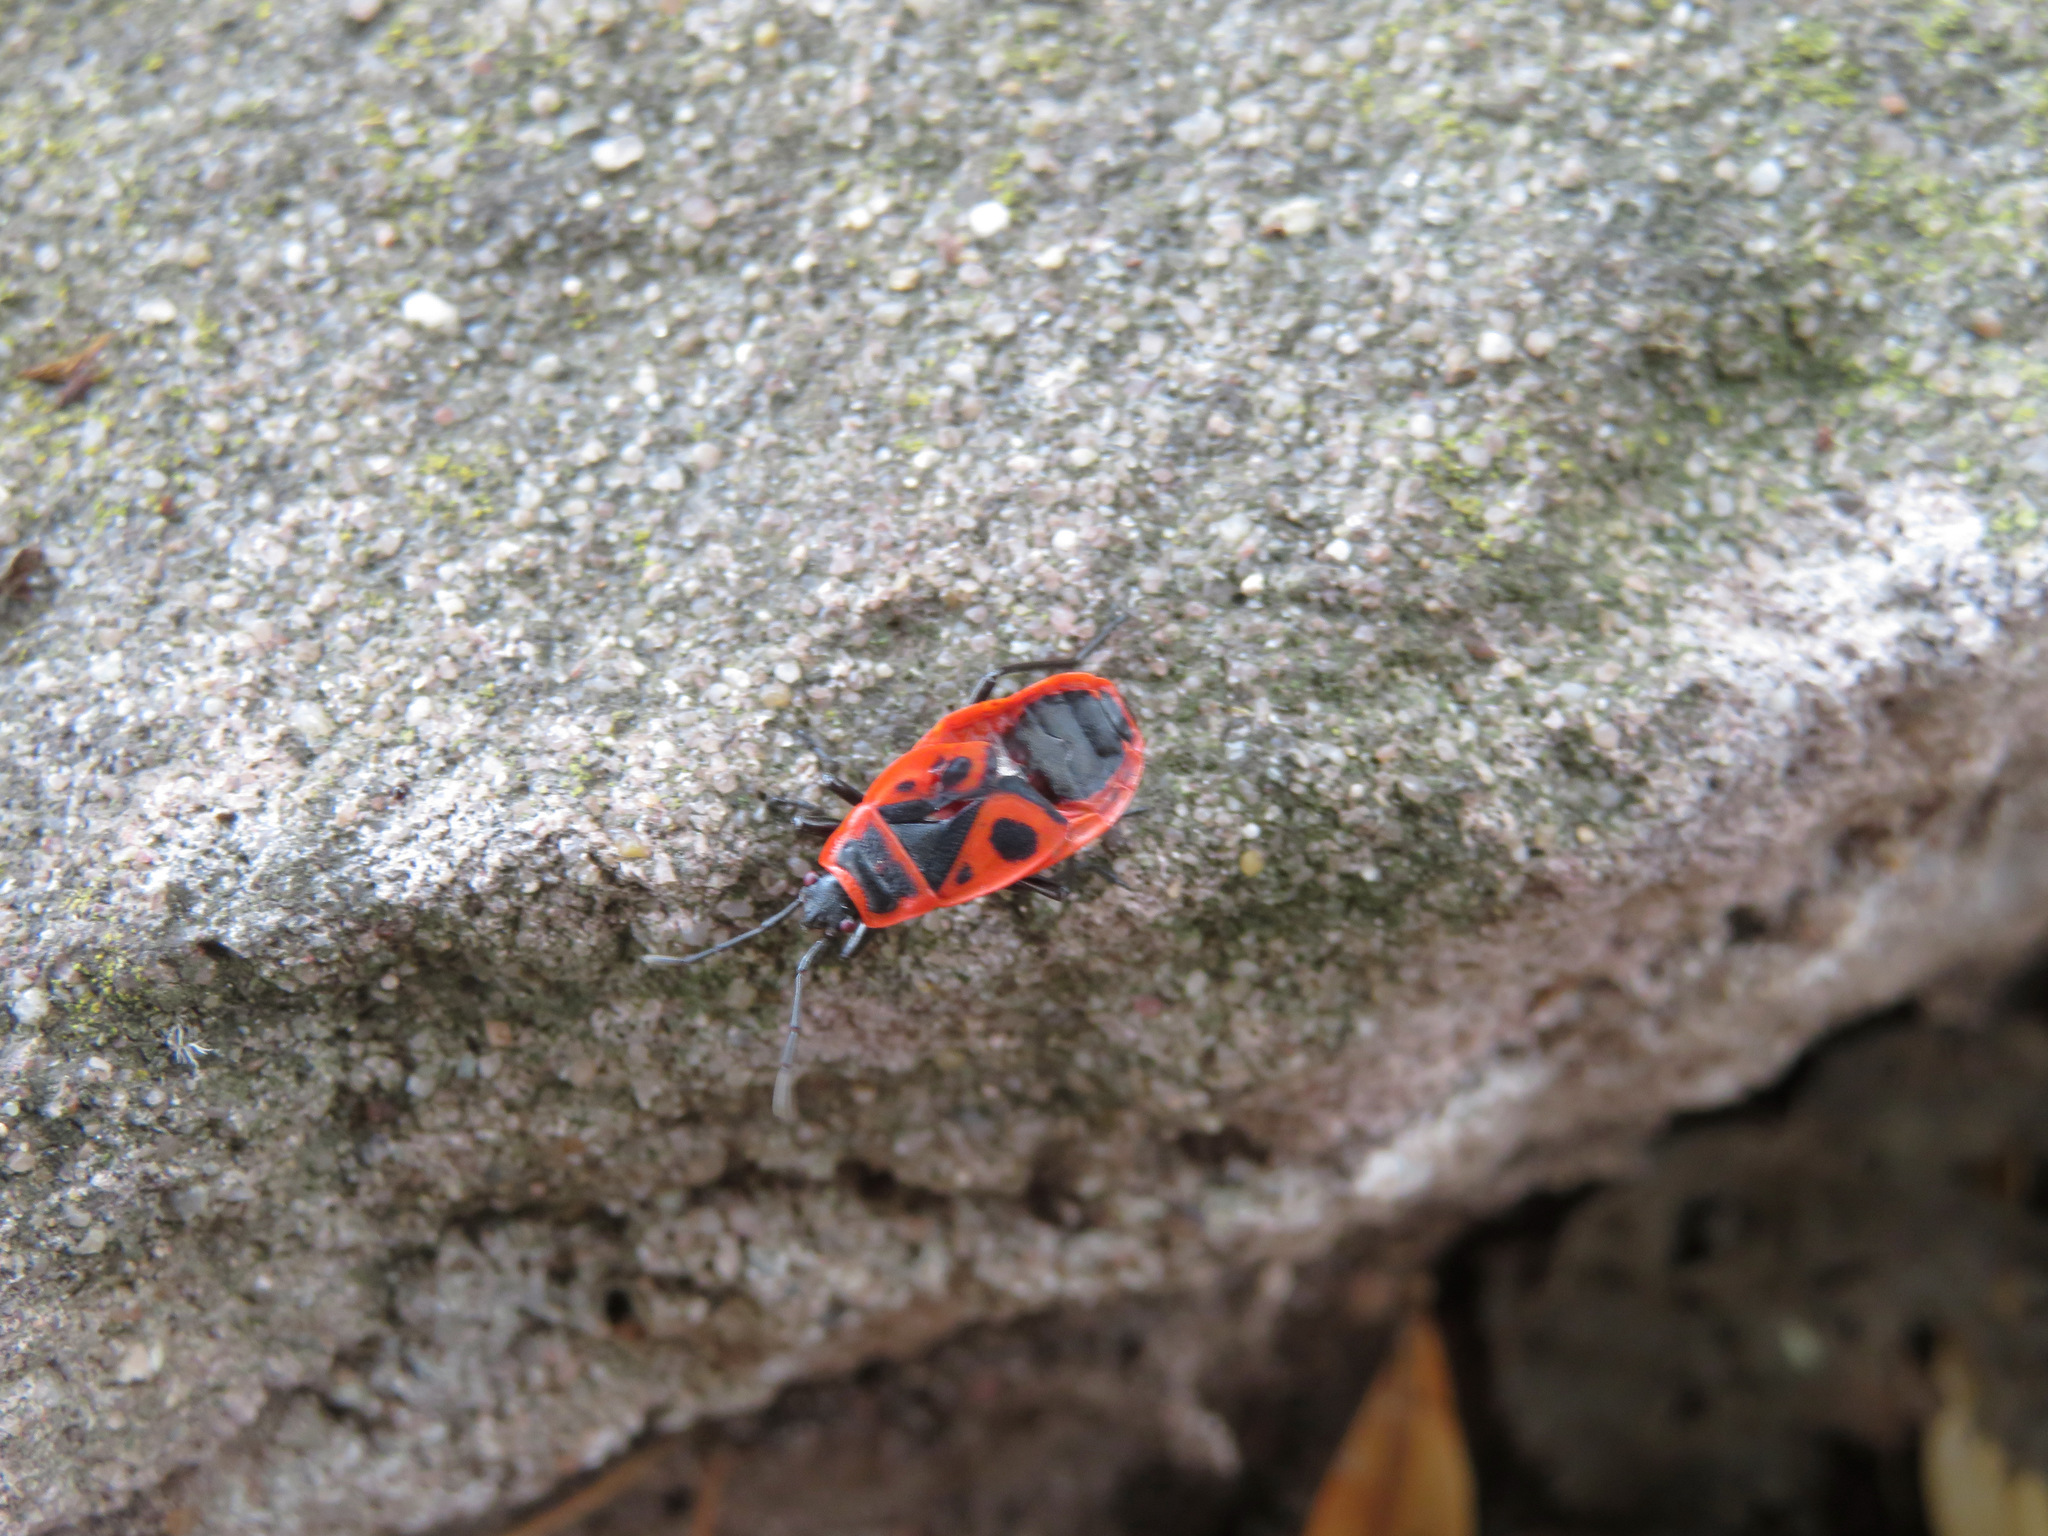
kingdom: Animalia
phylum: Arthropoda
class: Insecta
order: Hemiptera
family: Pyrrhocoridae
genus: Pyrrhocoris
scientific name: Pyrrhocoris apterus
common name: Firebug
